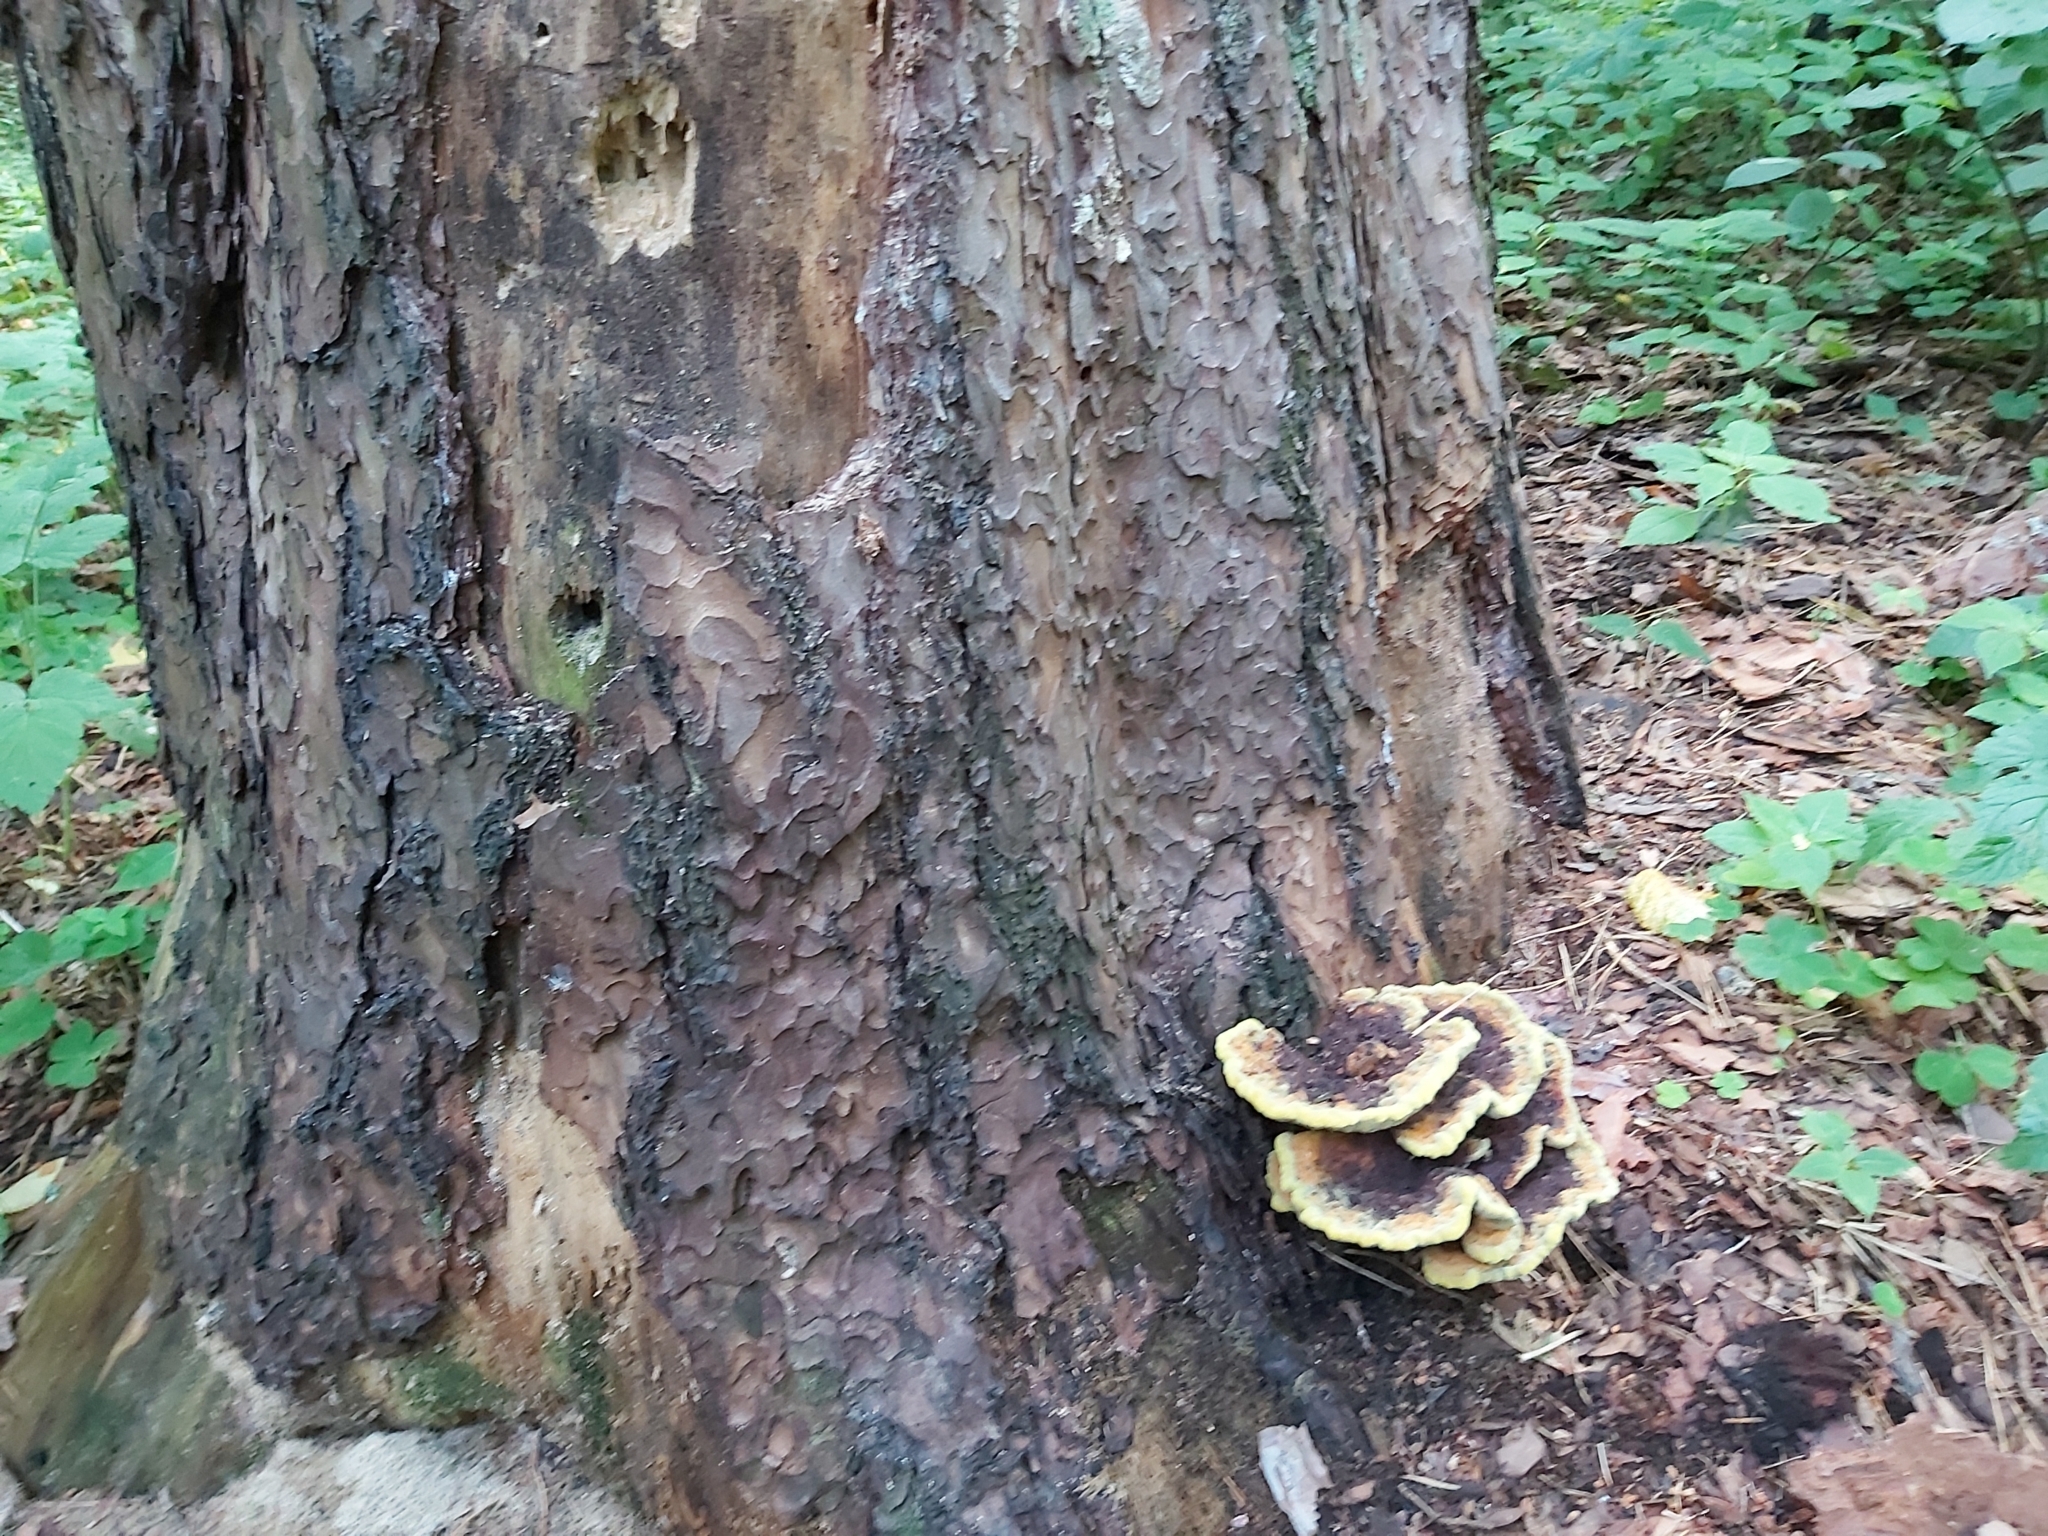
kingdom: Fungi
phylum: Basidiomycota
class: Agaricomycetes
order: Polyporales
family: Laetiporaceae
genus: Phaeolus
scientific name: Phaeolus schweinitzii
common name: Dyer's mazegill
